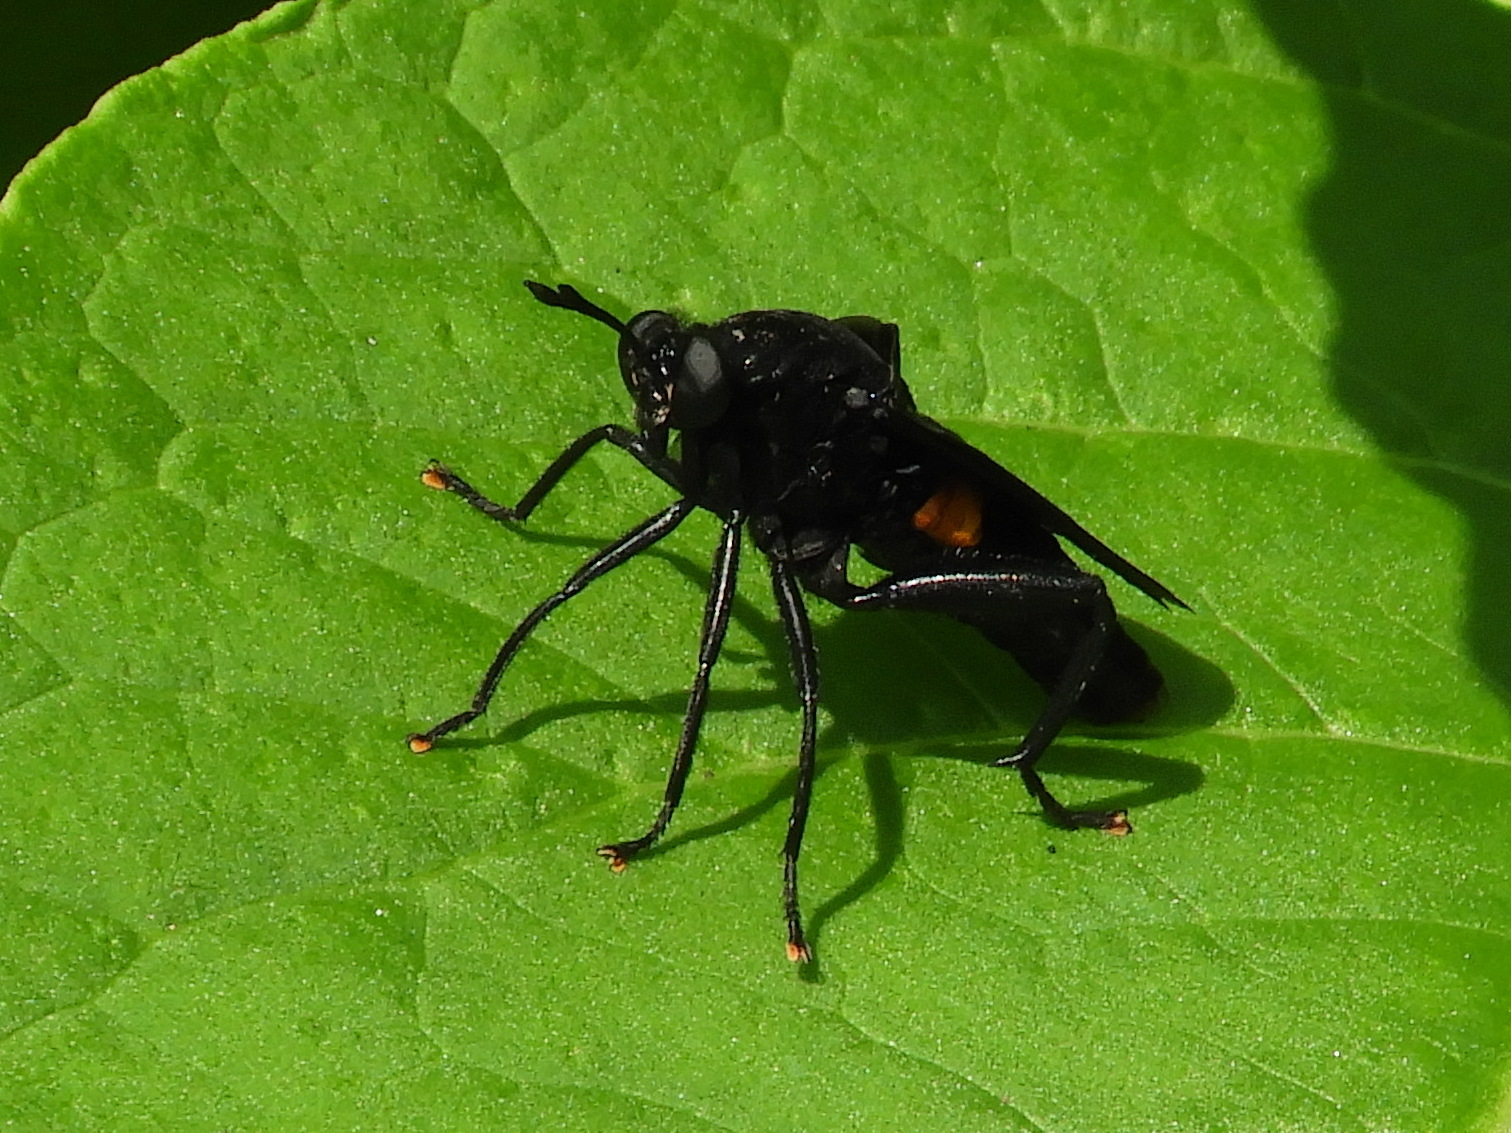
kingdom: Animalia
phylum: Arthropoda
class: Insecta
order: Diptera
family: Mydidae
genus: Mydas
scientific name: Mydas clavatus
